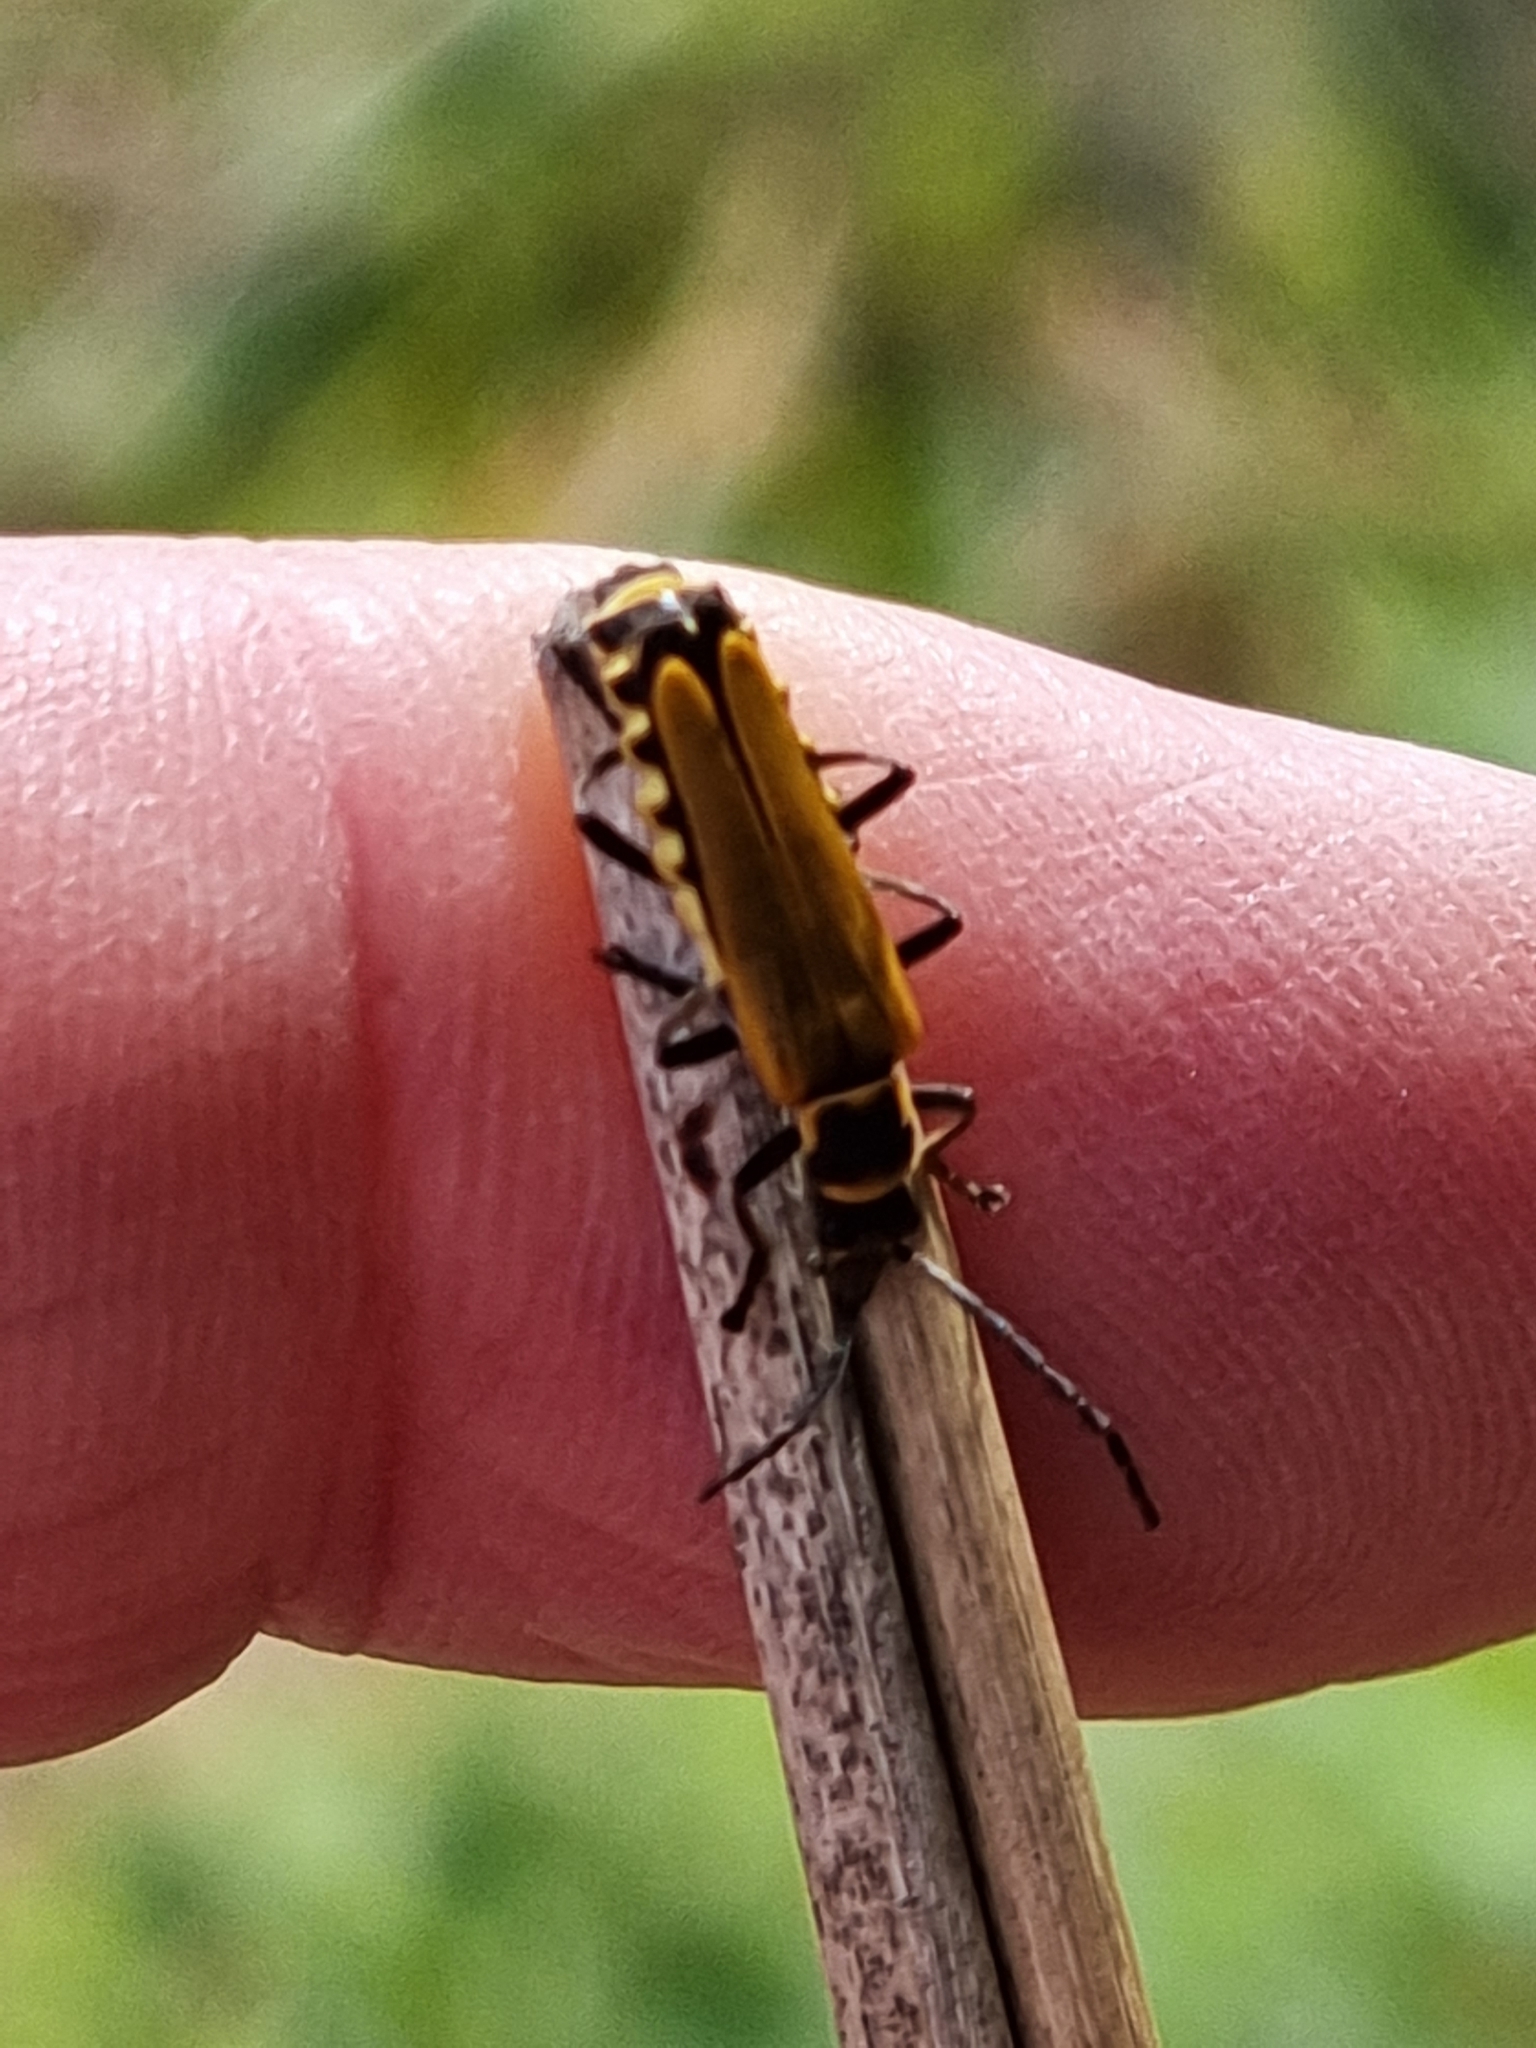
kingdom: Animalia
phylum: Arthropoda
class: Insecta
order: Coleoptera
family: Cantharidae
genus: Chauliognathus
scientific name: Chauliognathus
